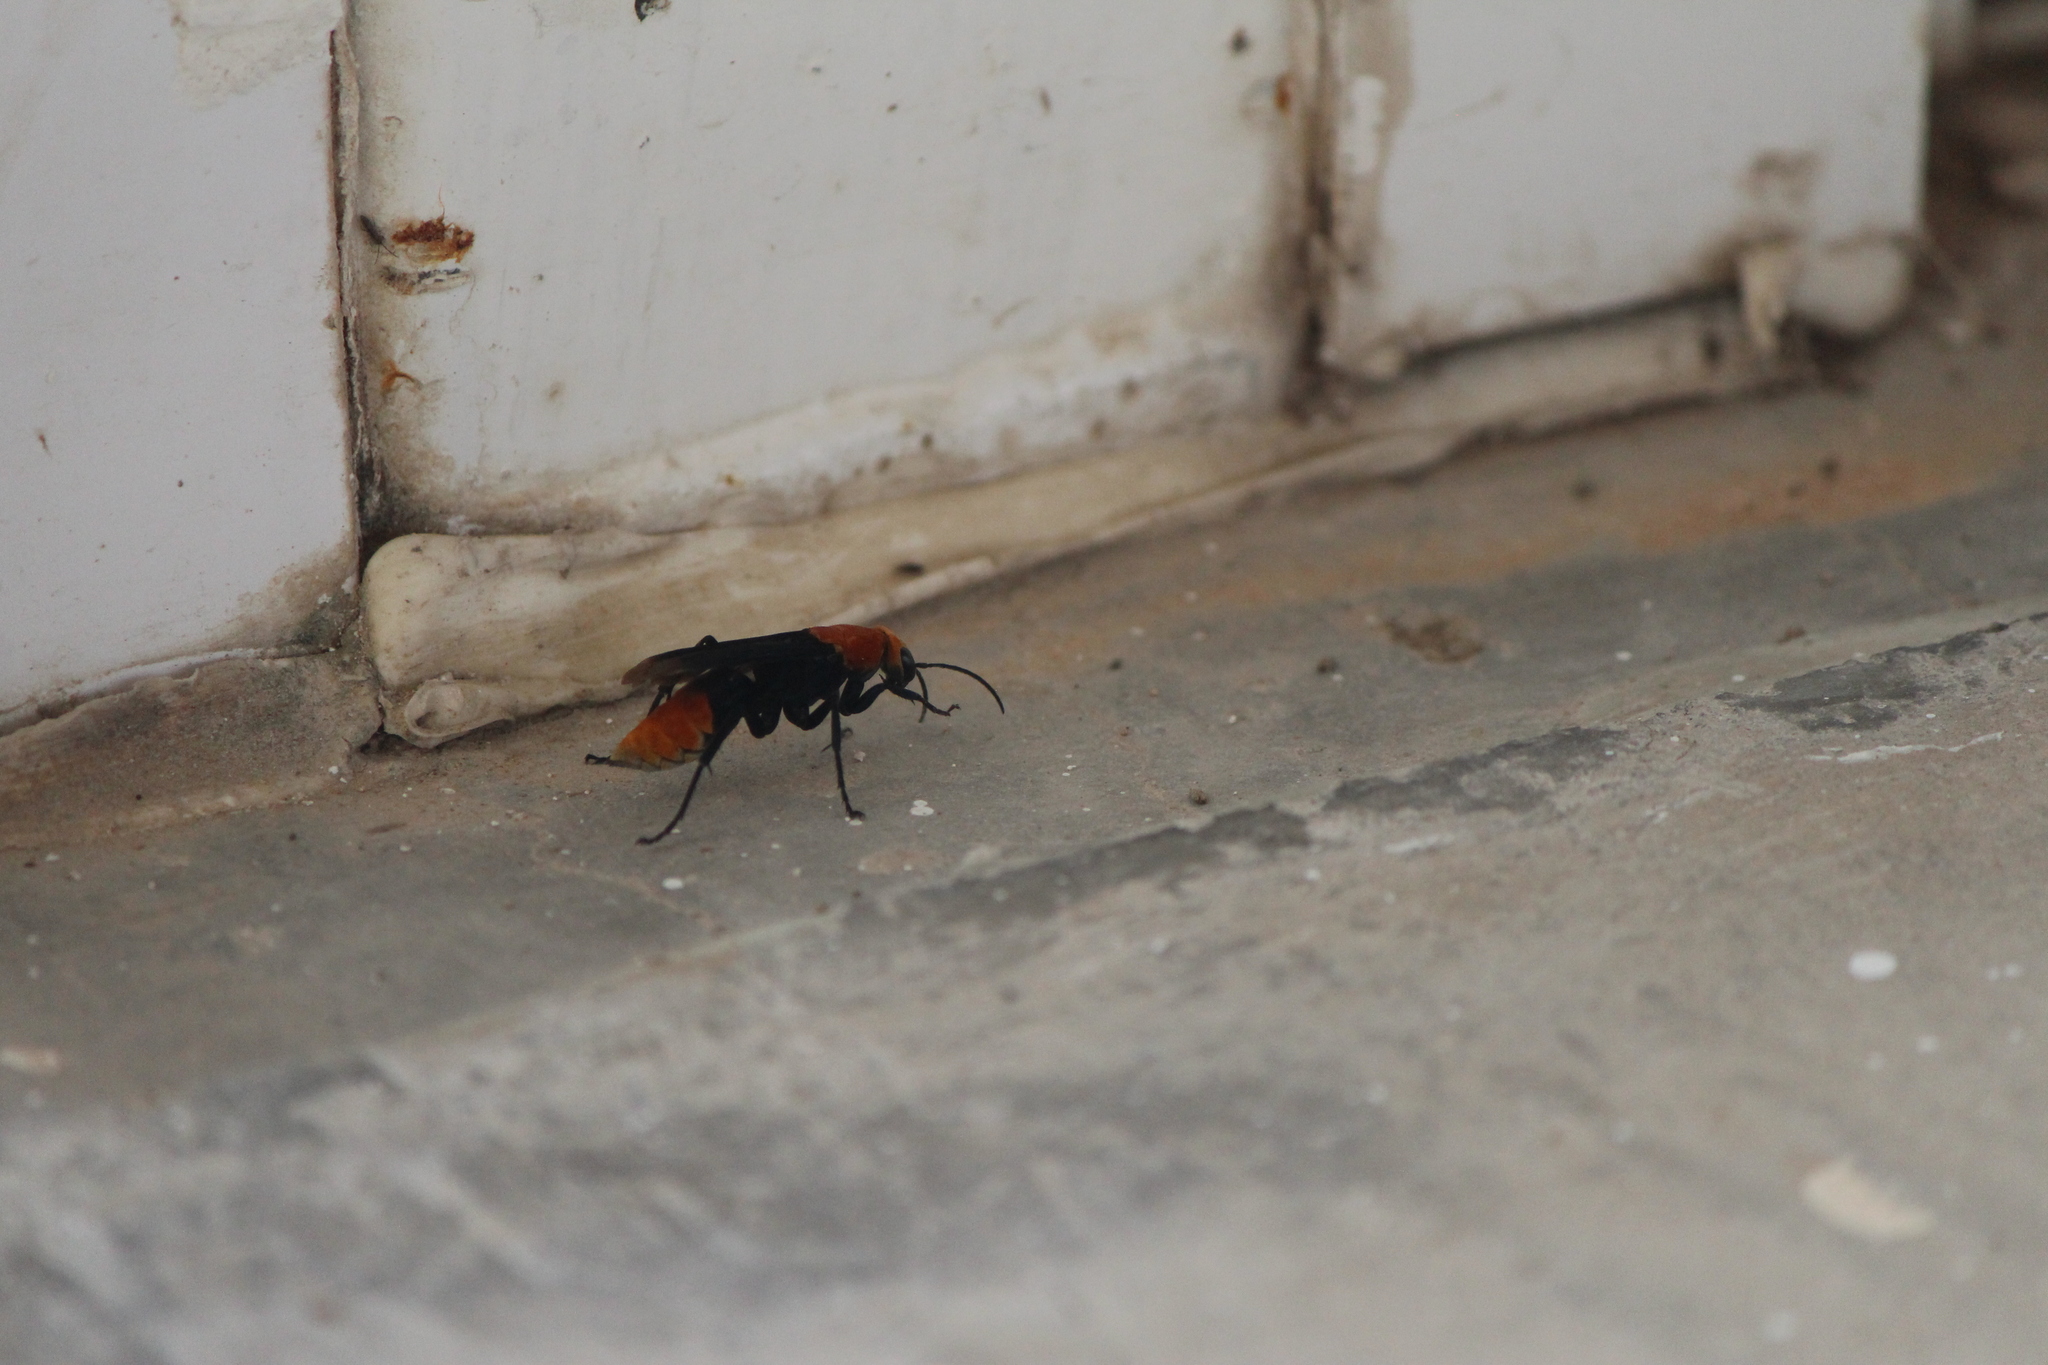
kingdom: Animalia
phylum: Arthropoda
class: Insecta
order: Hymenoptera
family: Pompilidae
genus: Psorthaspis
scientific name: Psorthaspis portiae
